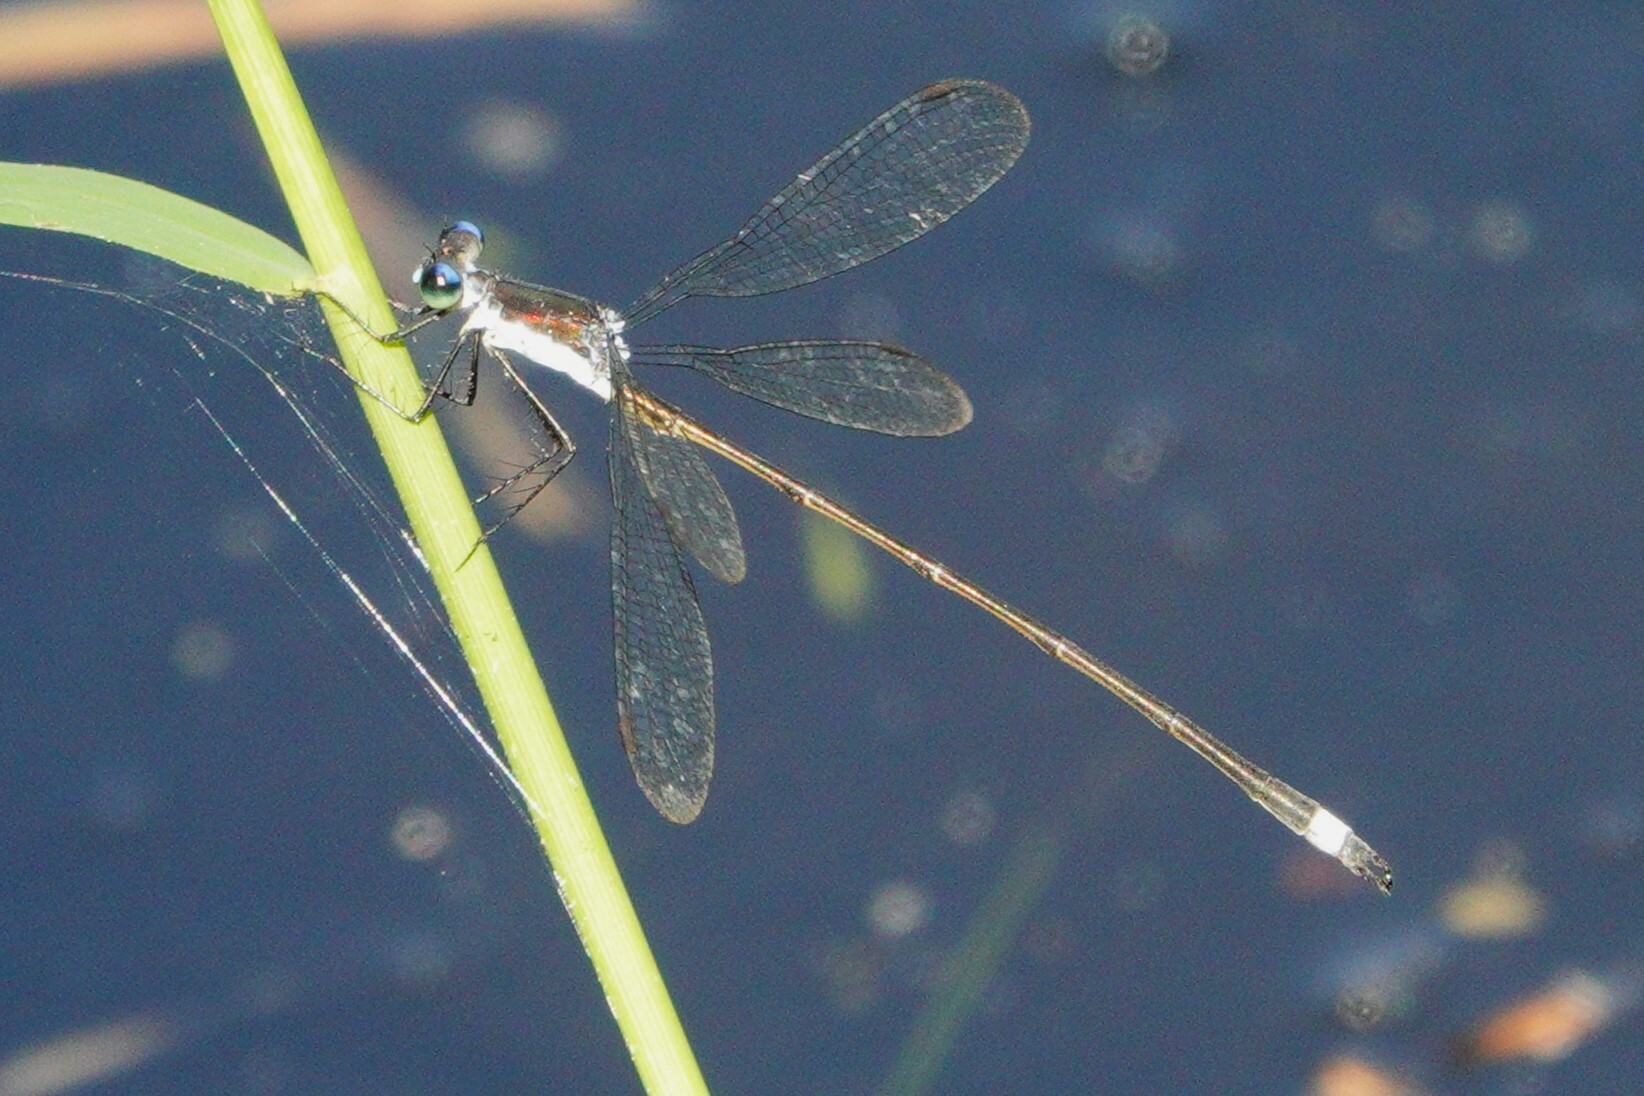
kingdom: Animalia
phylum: Arthropoda
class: Insecta
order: Odonata
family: Lestidae
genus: Lestes
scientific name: Lestes vigilax
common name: Swamp spreadwing
